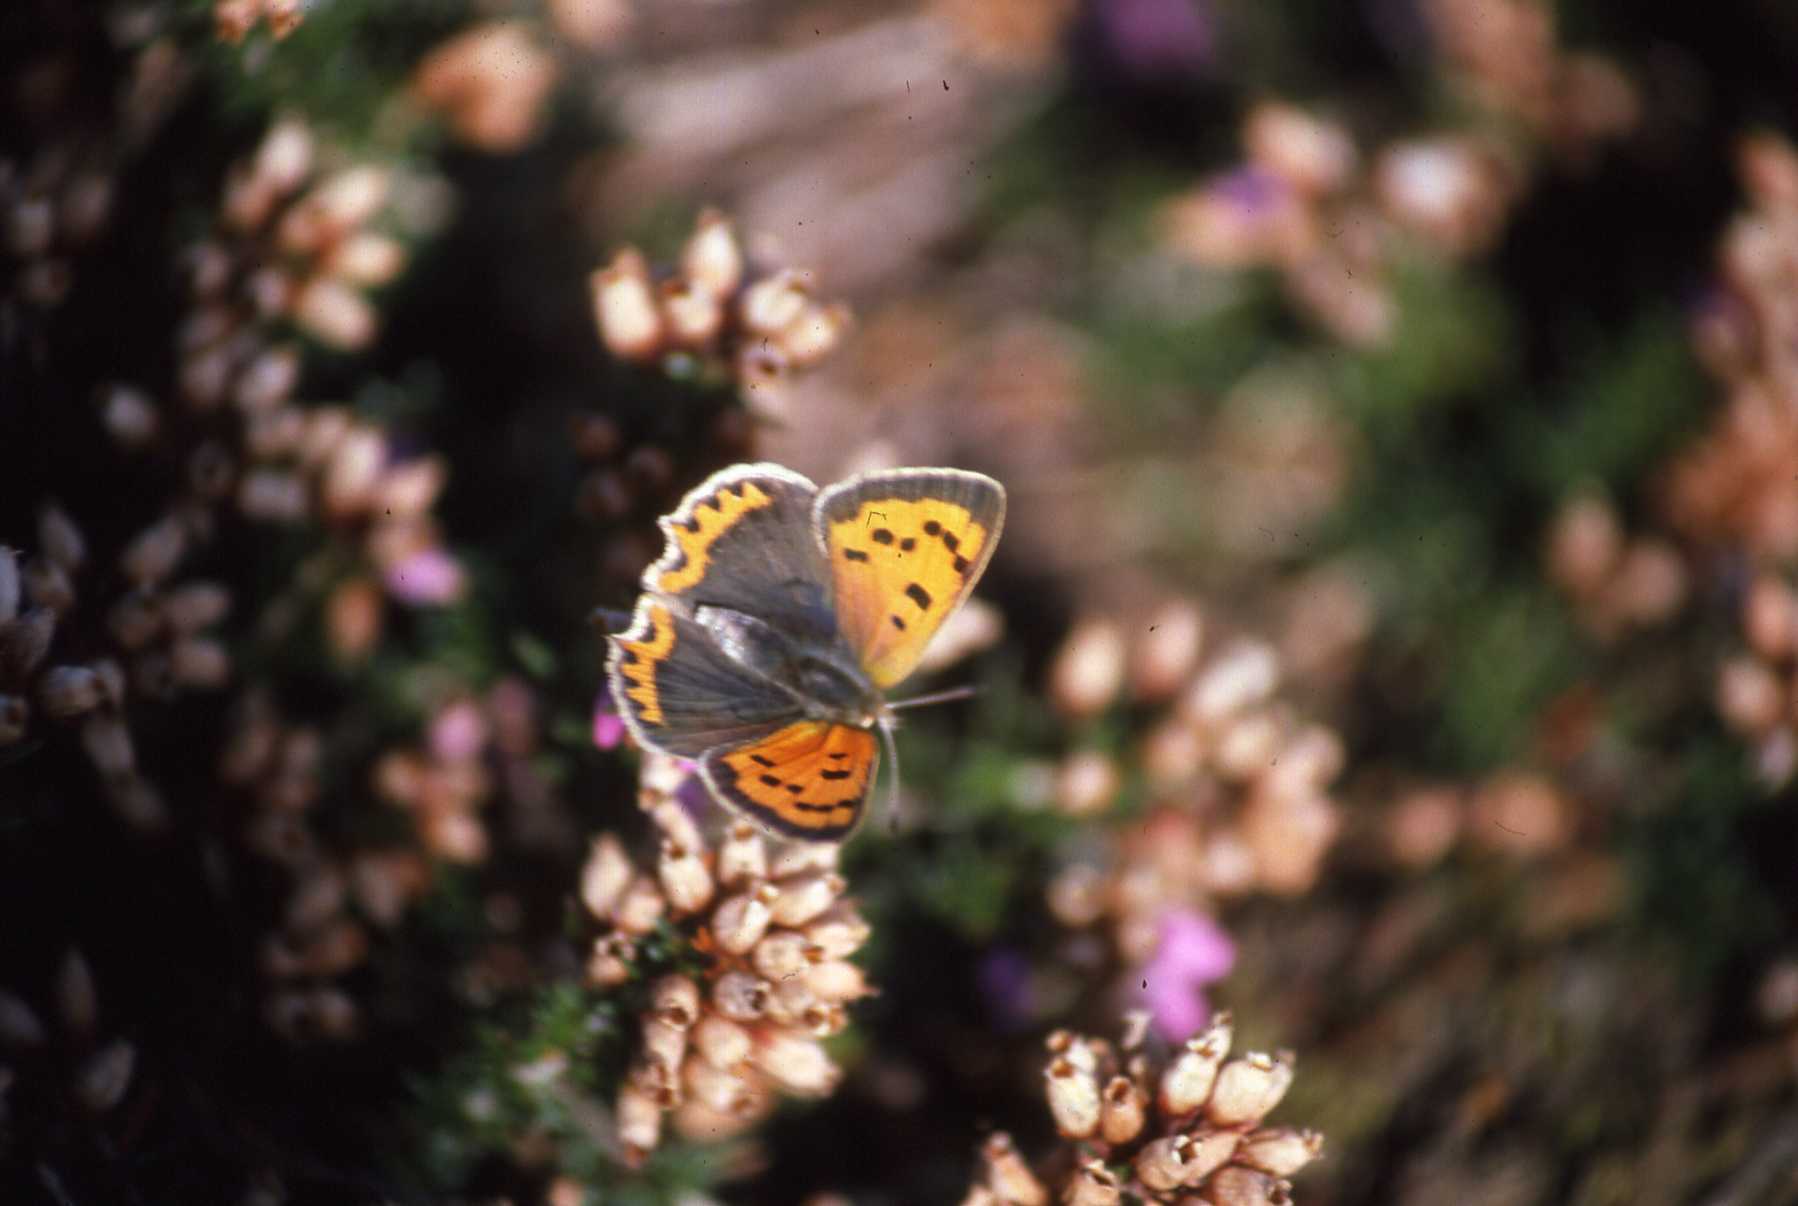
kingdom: Animalia
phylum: Arthropoda
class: Insecta
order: Lepidoptera
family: Lycaenidae
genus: Lycaena
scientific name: Lycaena phlaeas
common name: Small copper
